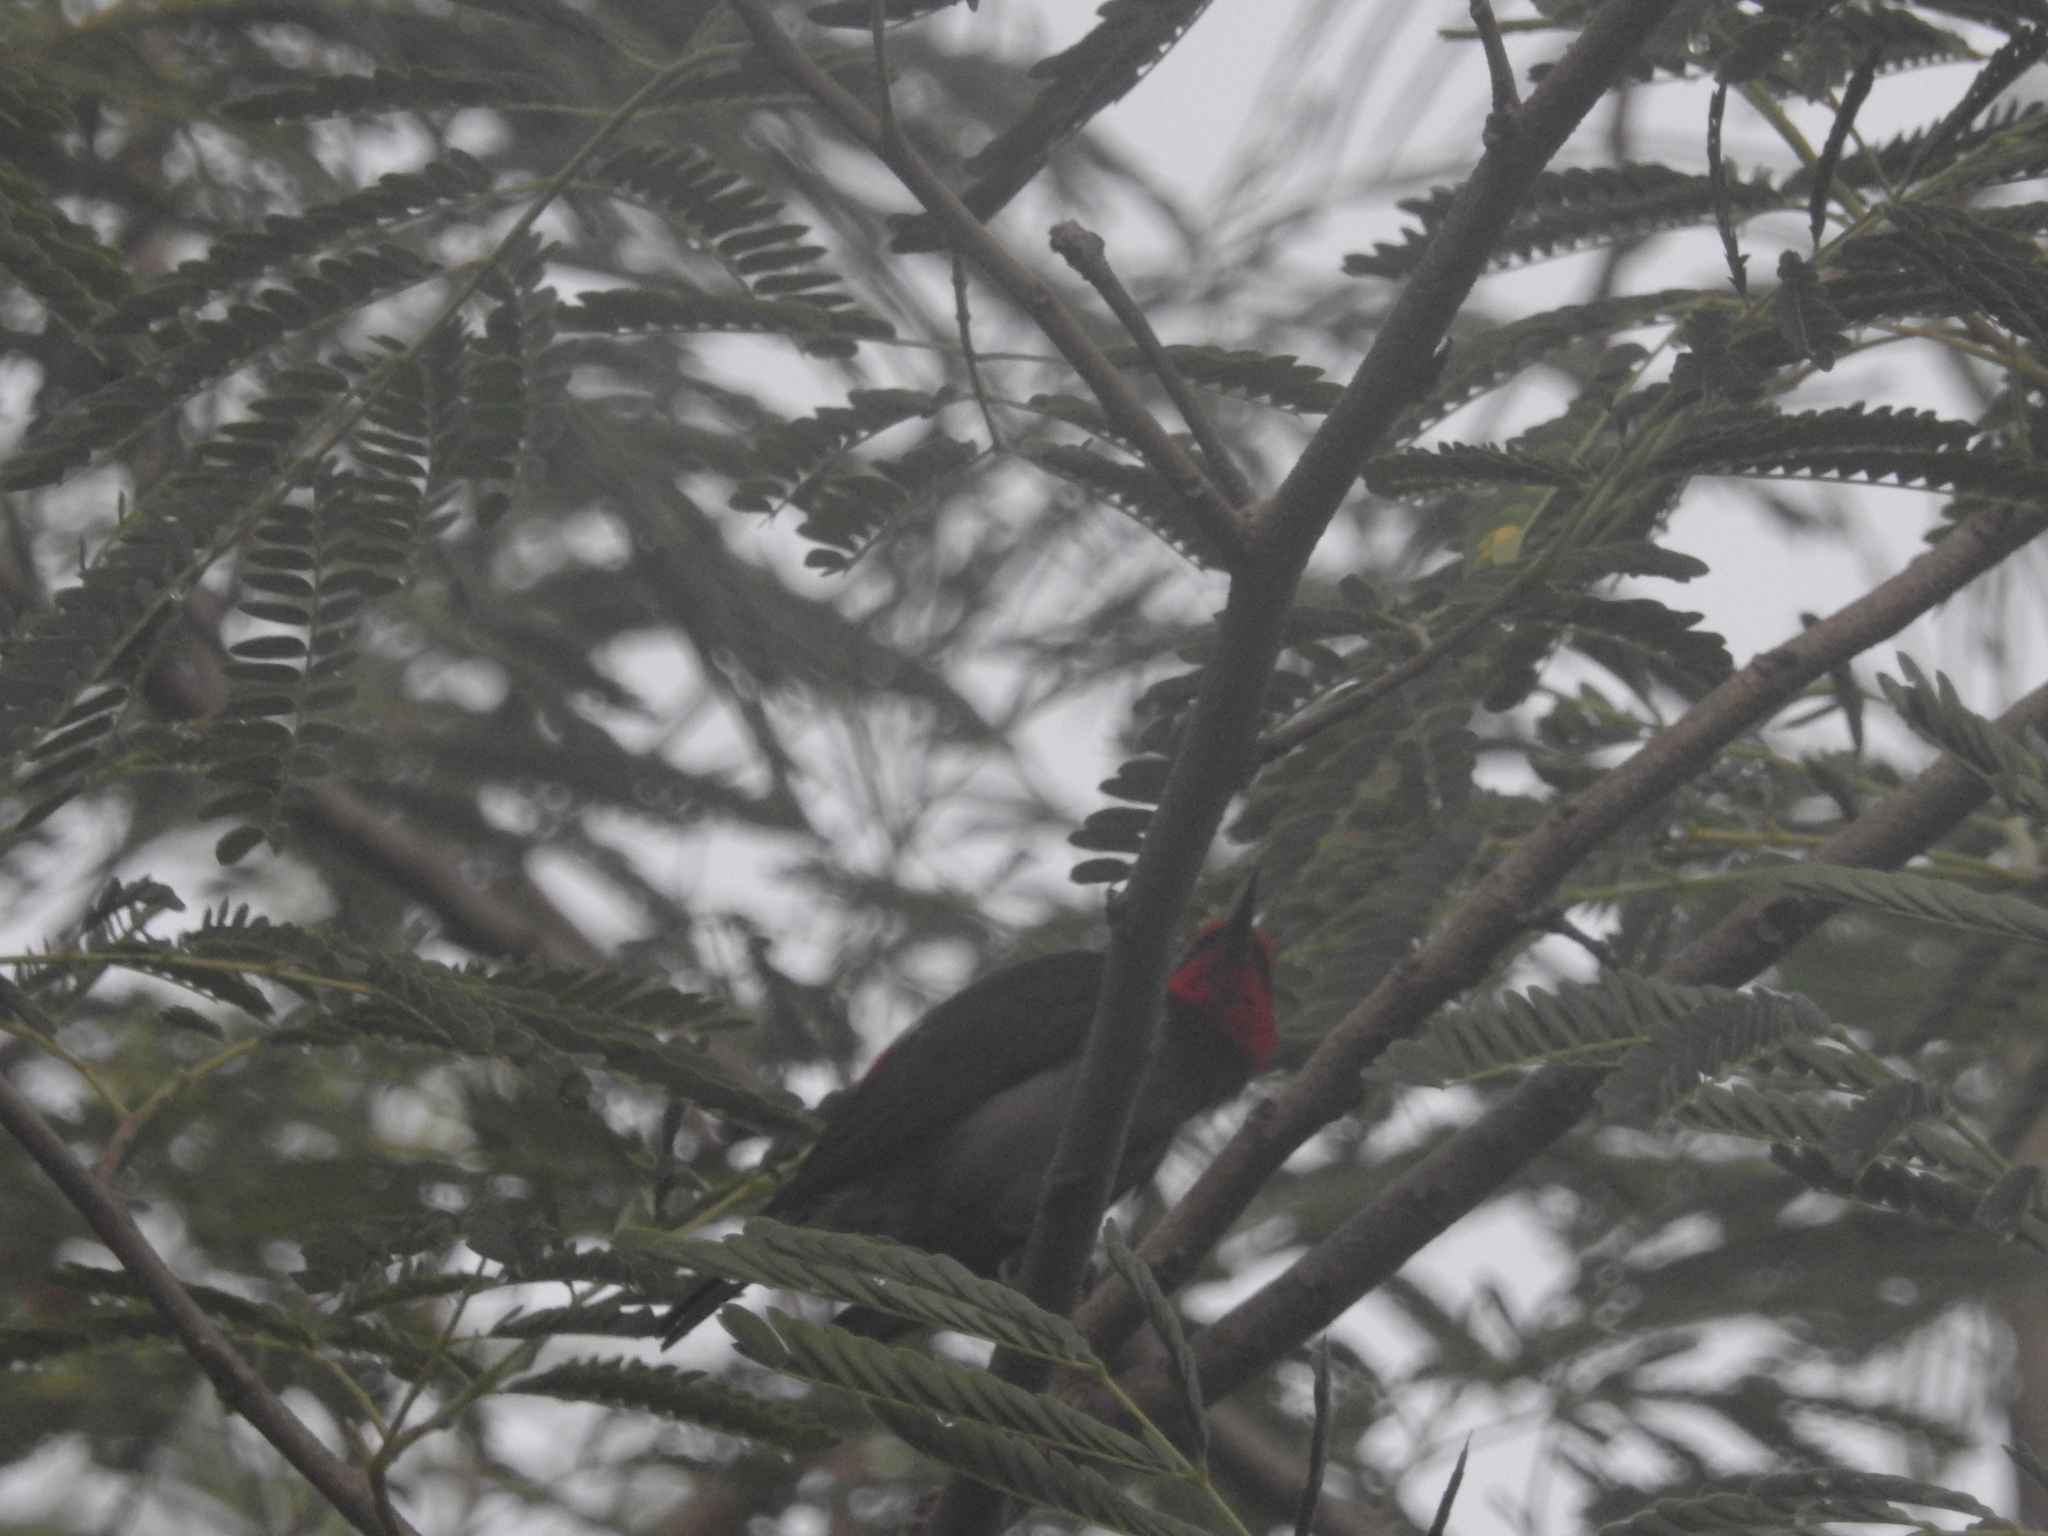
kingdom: Animalia
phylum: Chordata
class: Aves
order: Passeriformes
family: Meliphagidae
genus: Myzomela
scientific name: Myzomela erythrocephala
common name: Red-headed myzomela
